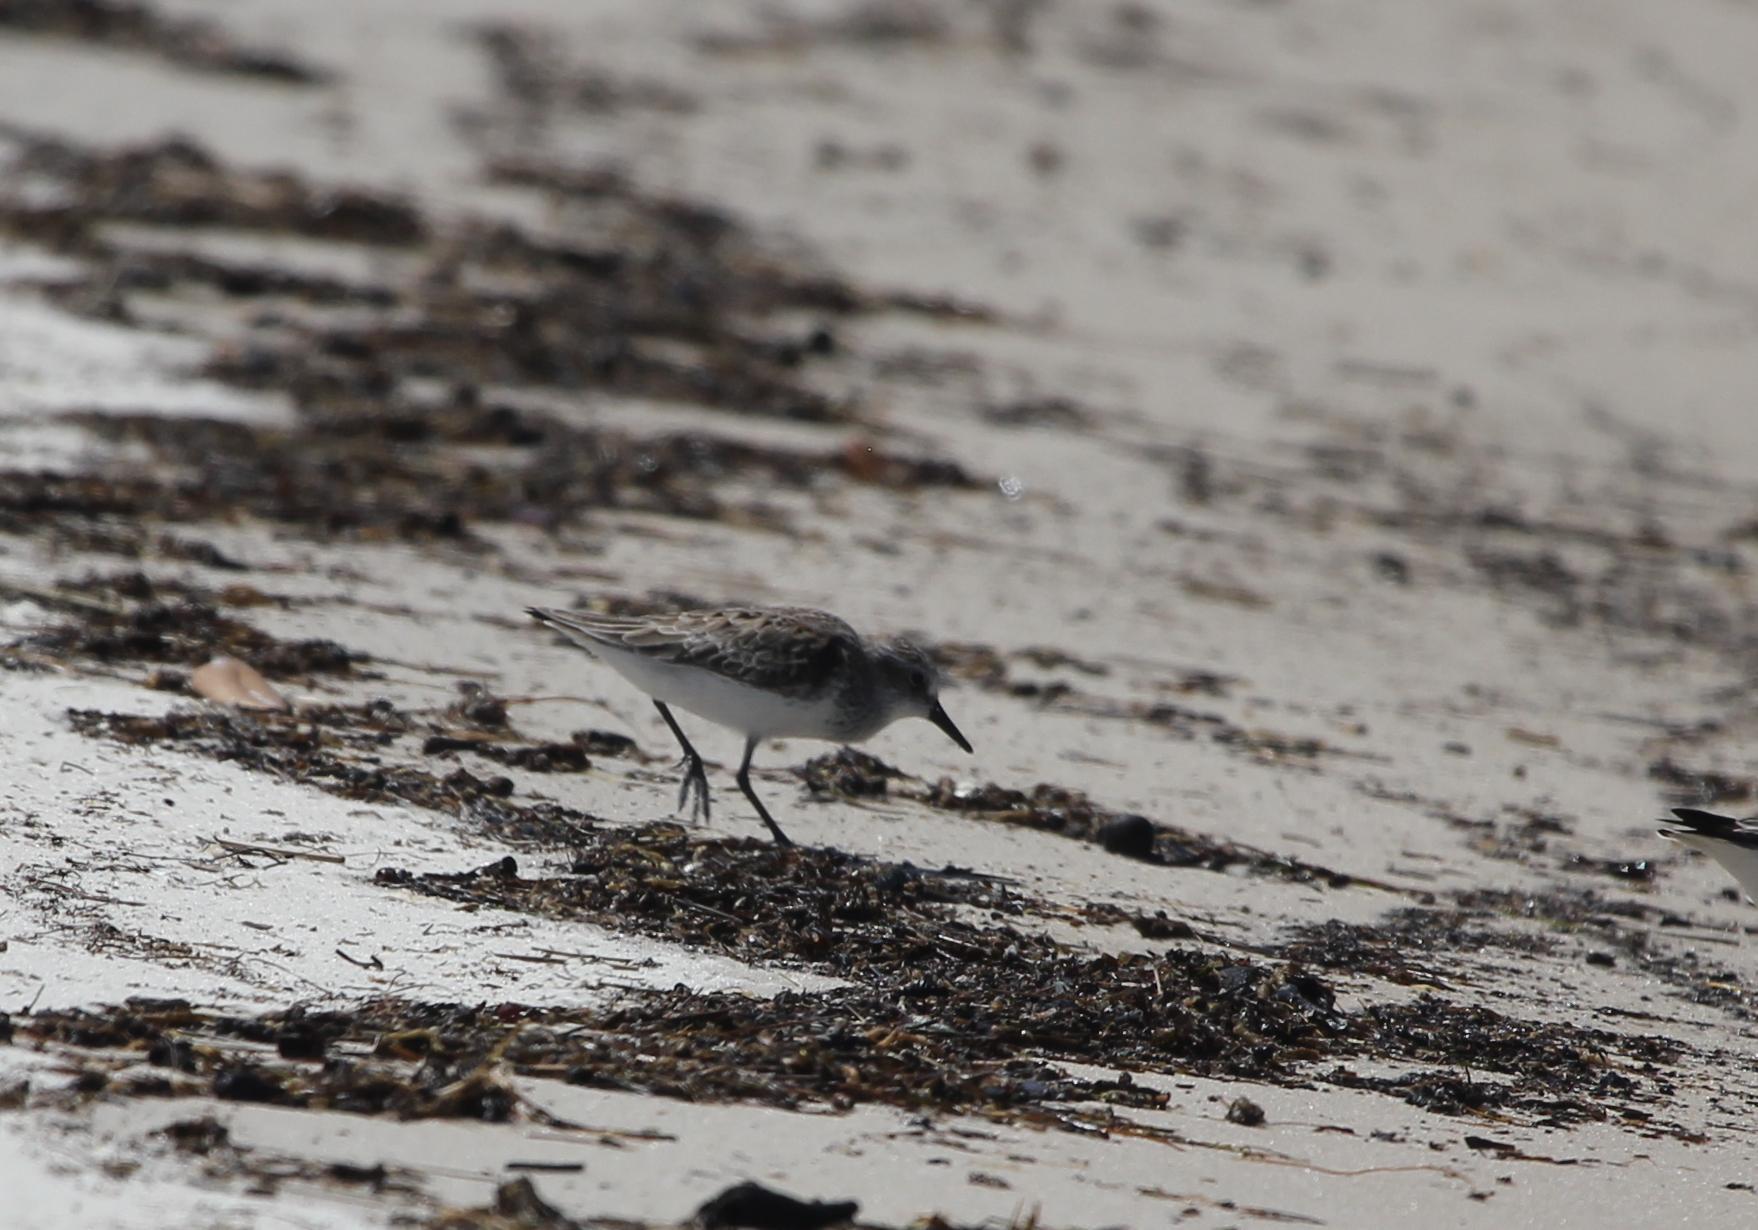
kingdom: Animalia
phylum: Chordata
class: Aves
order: Charadriiformes
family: Scolopacidae
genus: Calidris
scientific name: Calidris pusilla
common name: Semipalmated sandpiper
